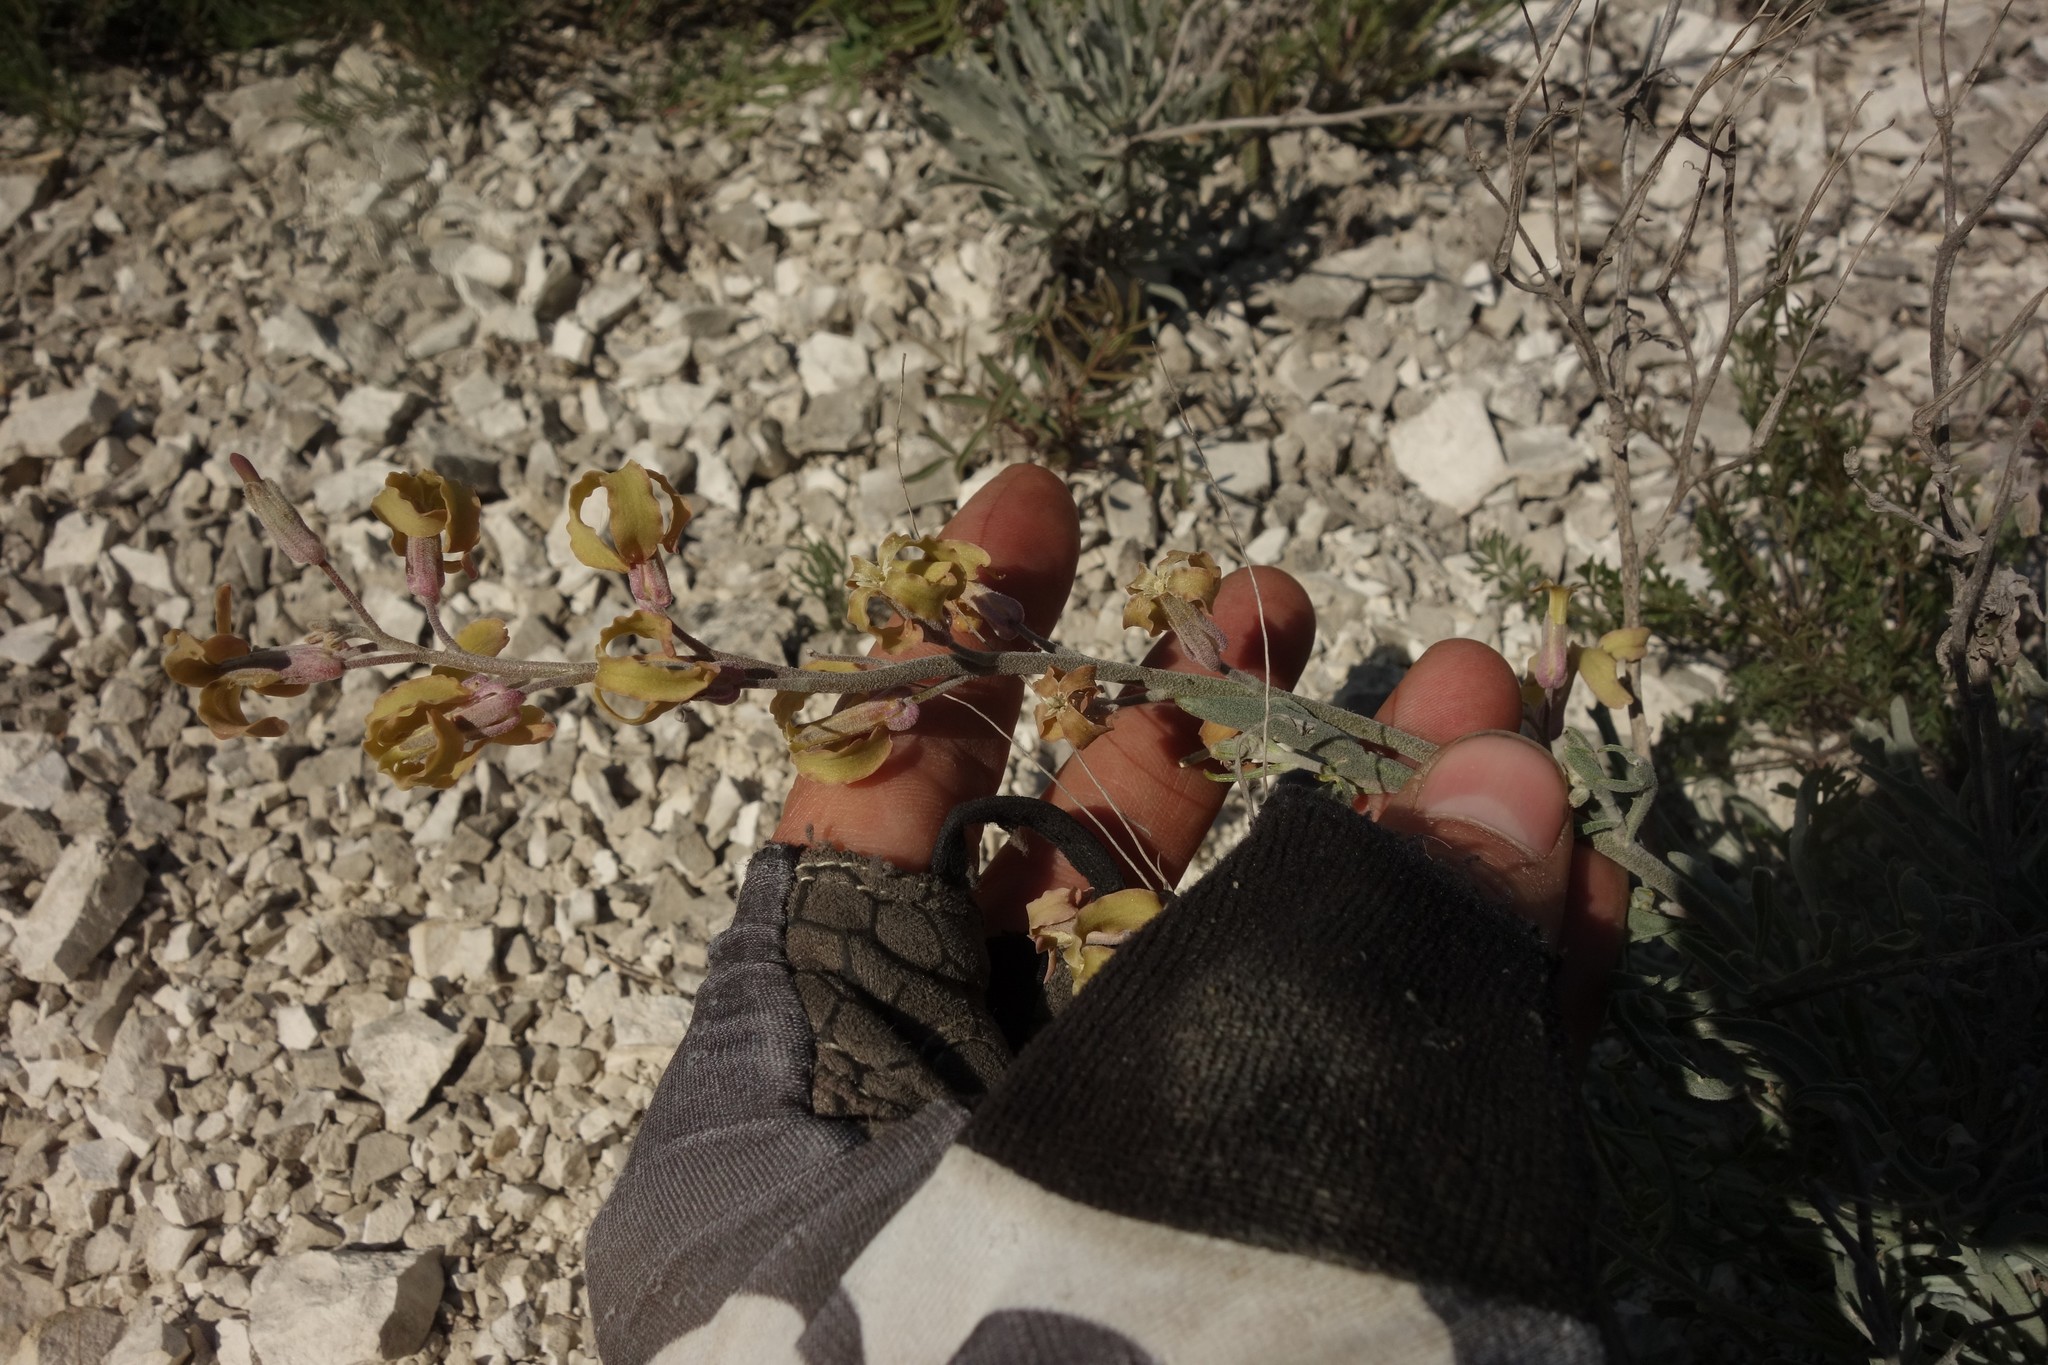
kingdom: Plantae
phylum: Tracheophyta
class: Magnoliopsida
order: Brassicales
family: Brassicaceae
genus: Matthiola
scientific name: Matthiola fragrans
